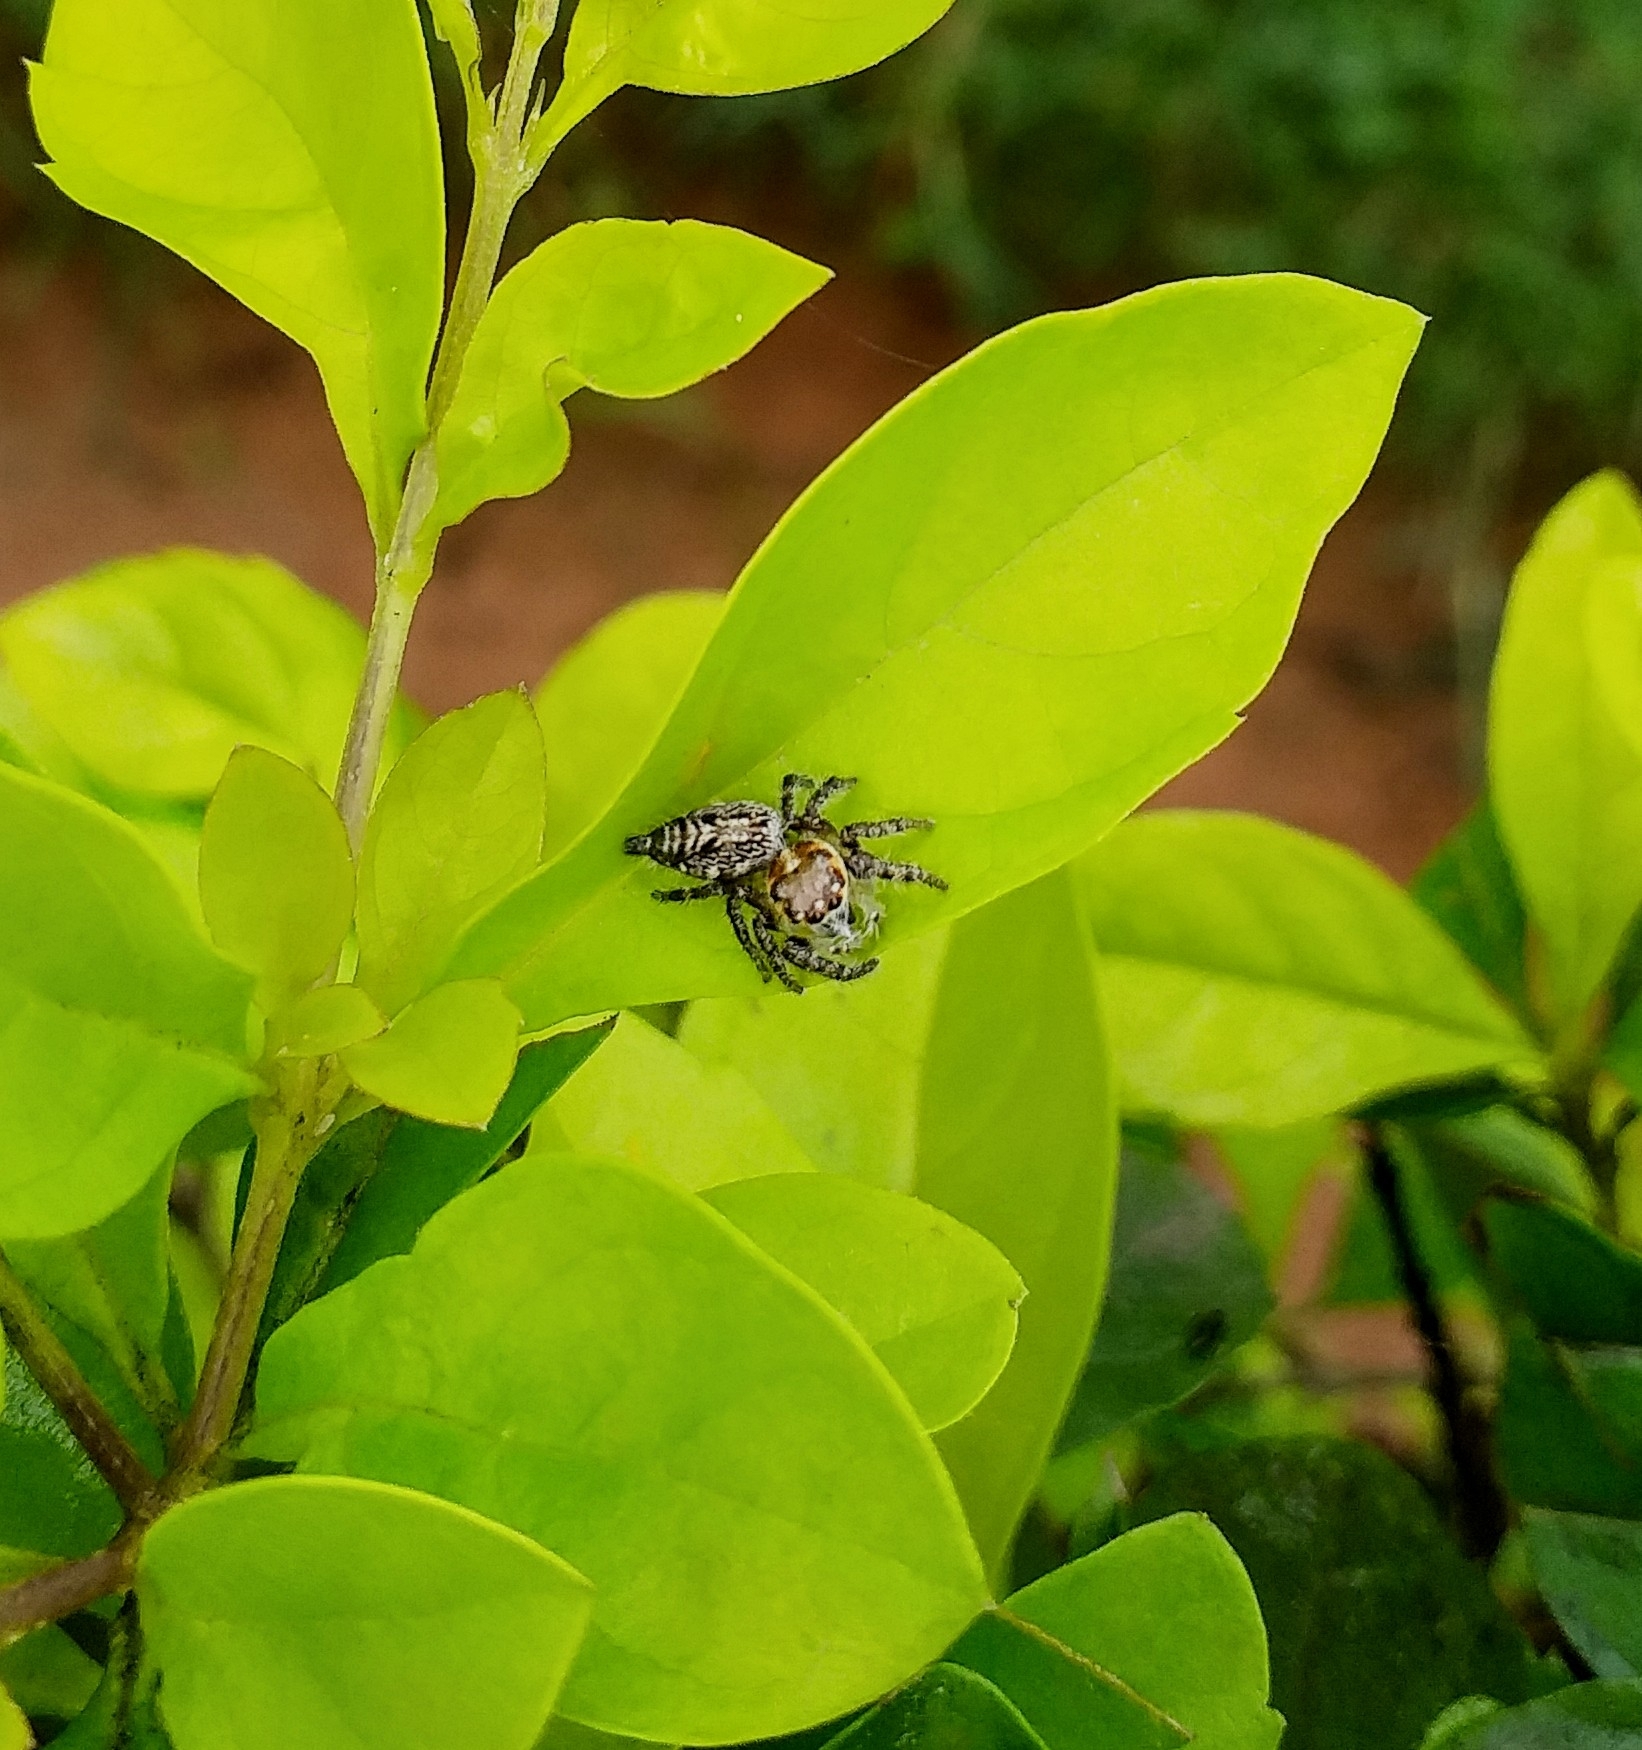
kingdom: Animalia
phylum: Arthropoda
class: Arachnida
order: Araneae
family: Salticidae
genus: Hyllus
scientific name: Hyllus semicupreus
